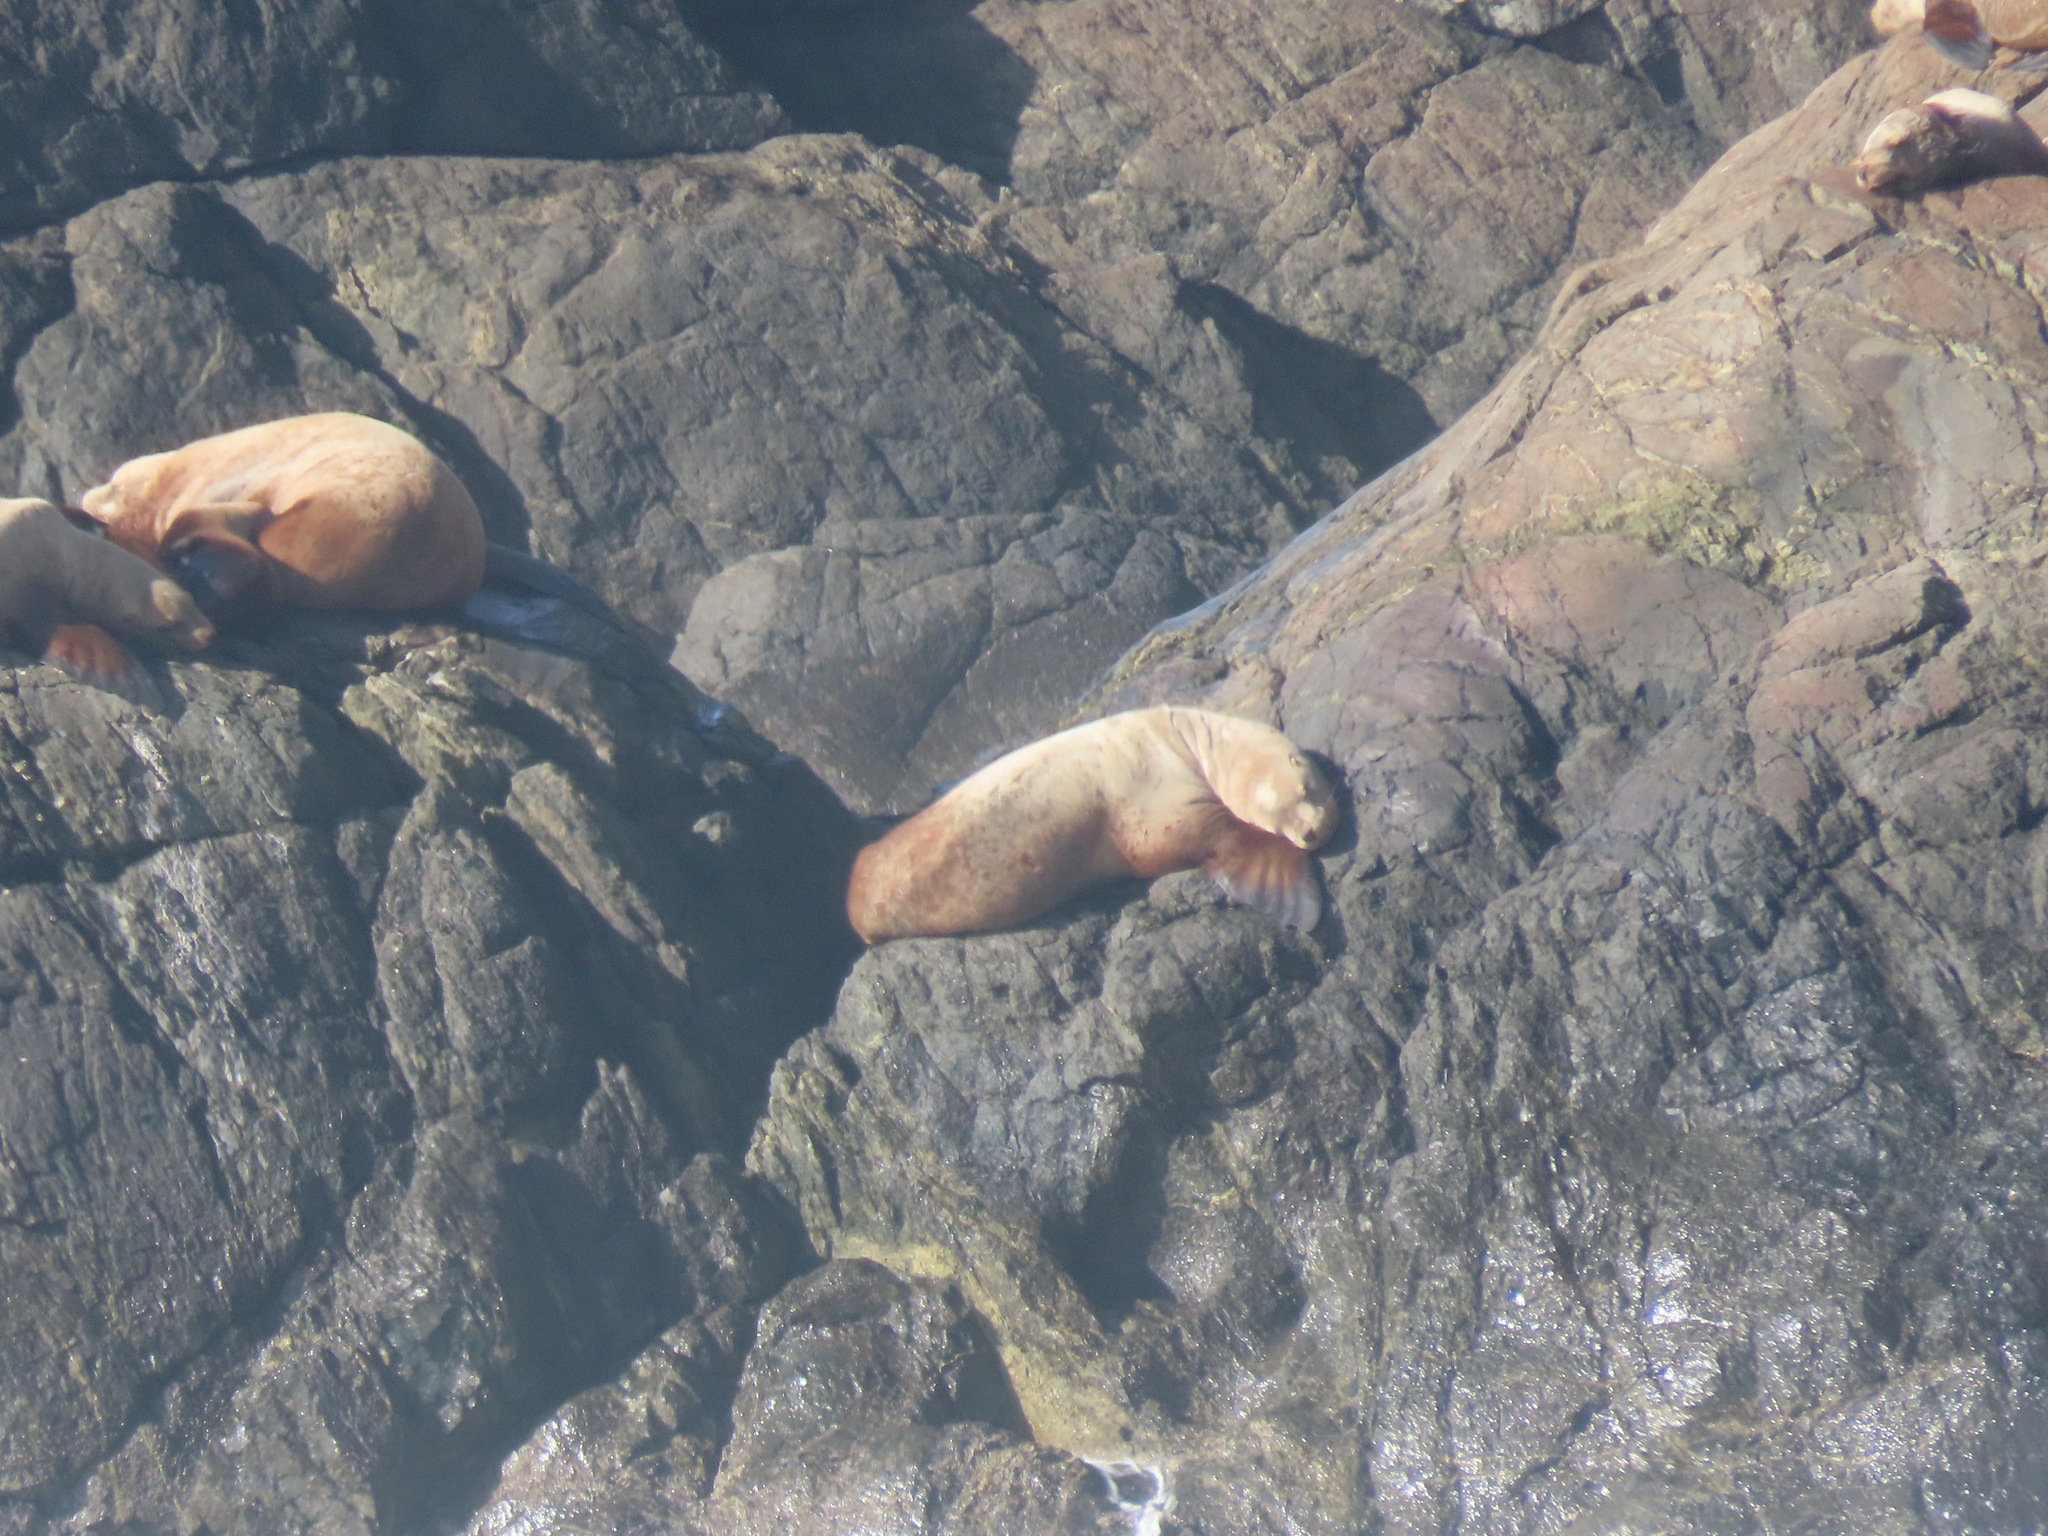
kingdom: Animalia
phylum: Chordata
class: Mammalia
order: Carnivora
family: Otariidae
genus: Eumetopias
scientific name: Eumetopias jubatus
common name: Steller sea lion
